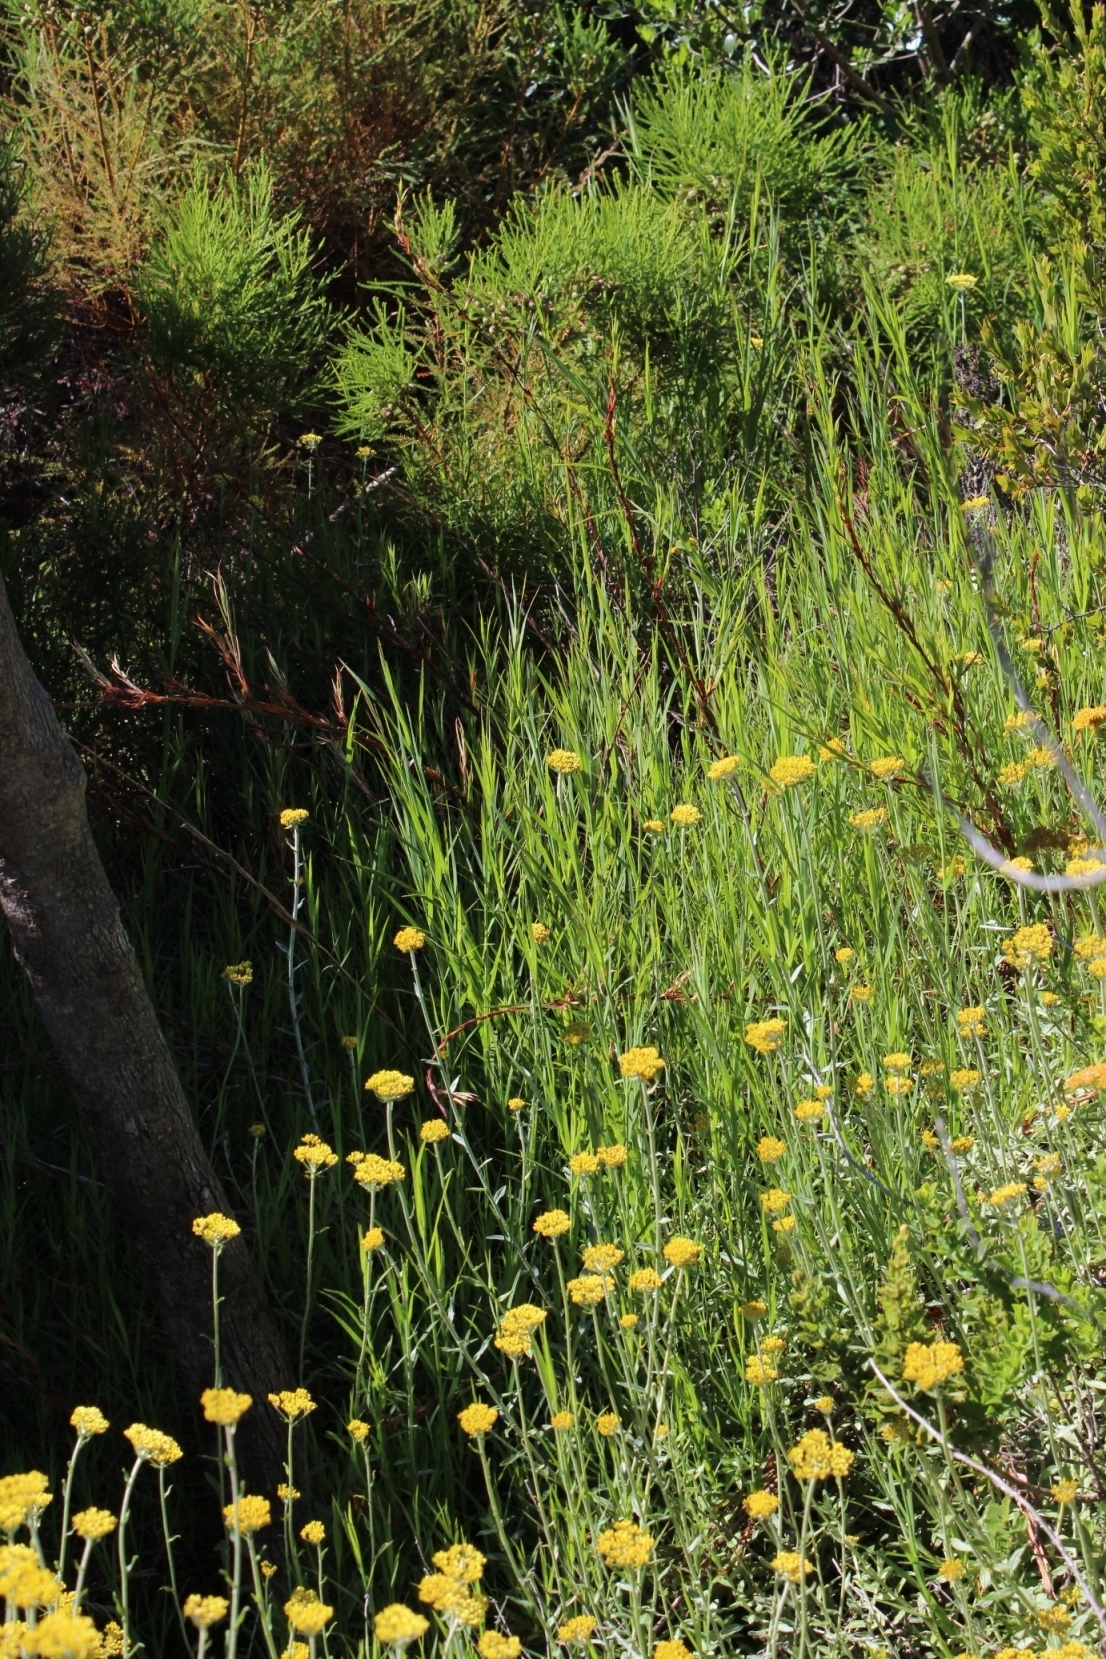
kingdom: Plantae
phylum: Tracheophyta
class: Magnoliopsida
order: Asterales
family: Asteraceae
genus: Helichrysum
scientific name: Helichrysum cymosum
